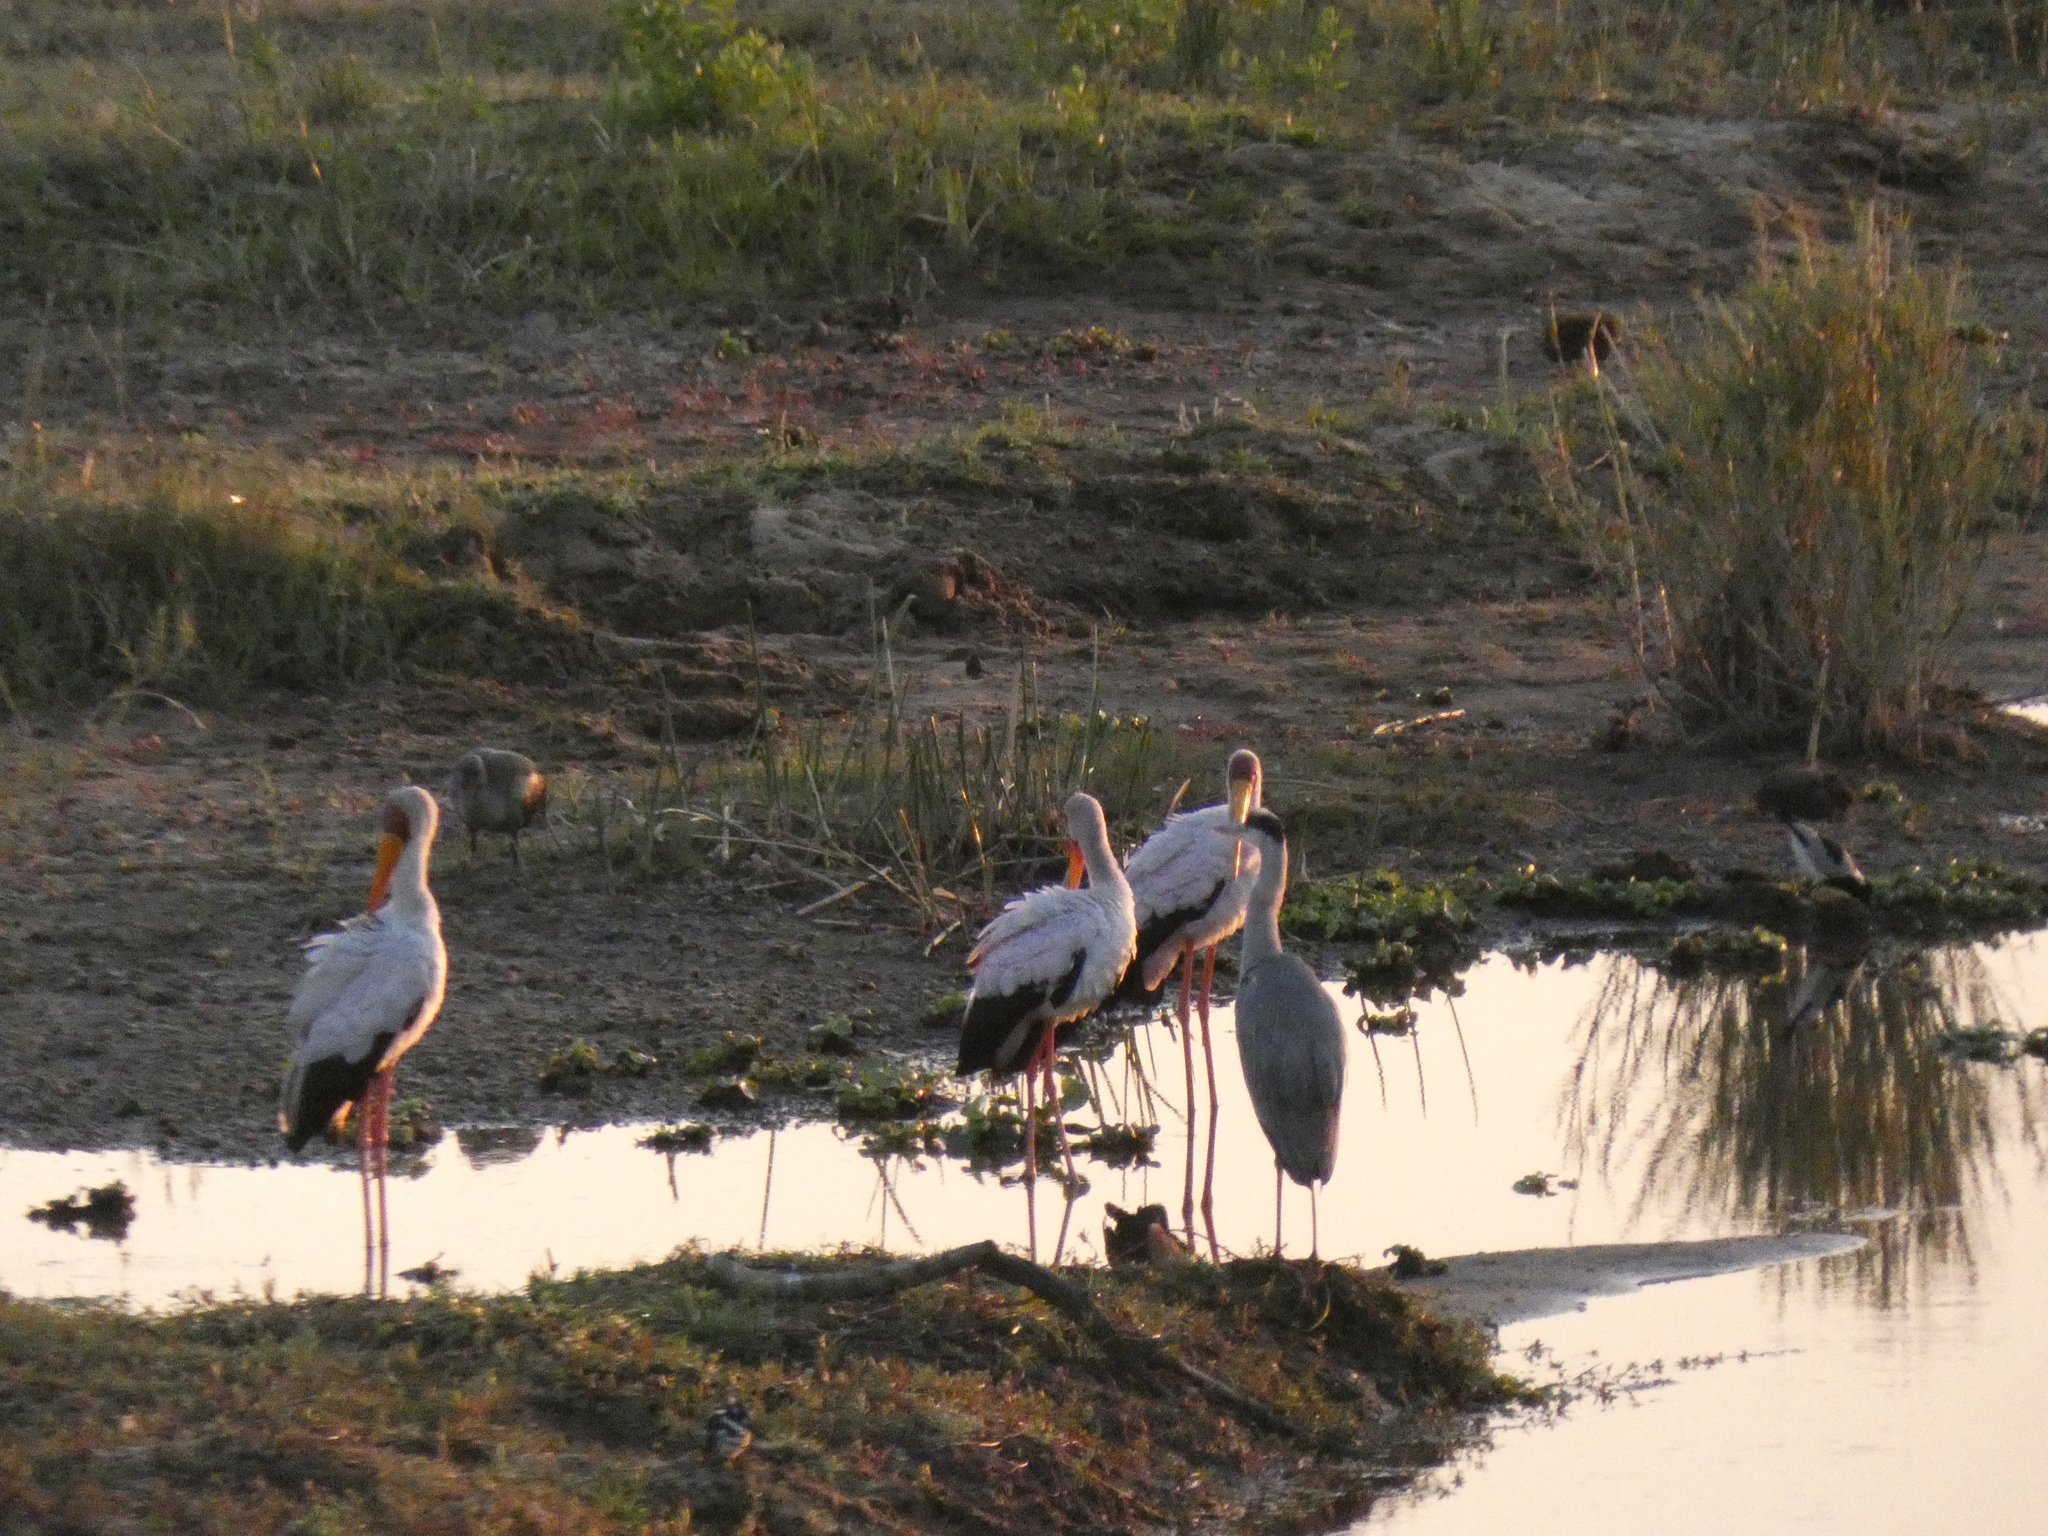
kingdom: Animalia
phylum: Chordata
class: Aves
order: Ciconiiformes
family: Ciconiidae
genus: Mycteria
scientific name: Mycteria ibis
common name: Yellow-billed stork
